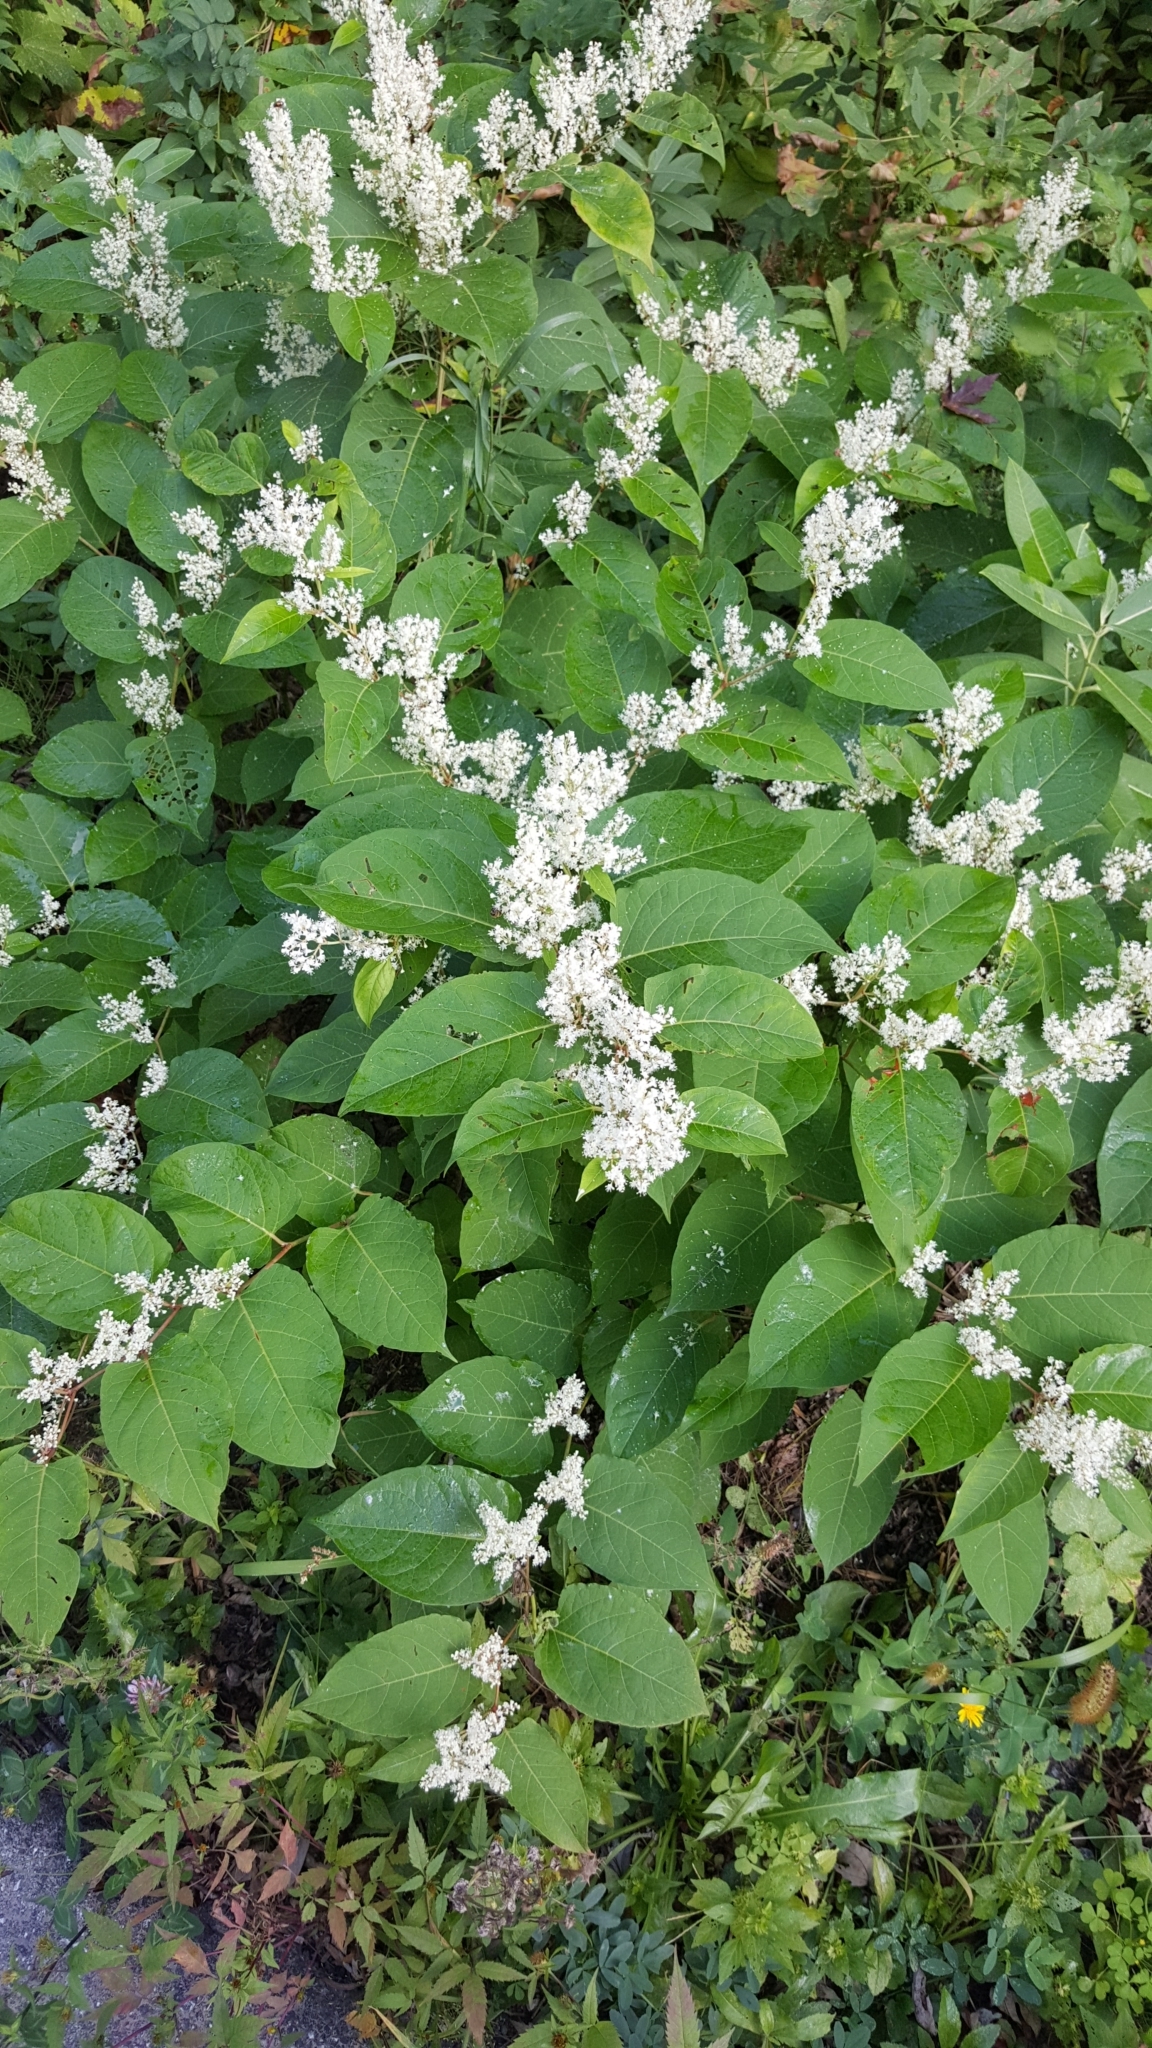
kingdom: Plantae
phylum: Tracheophyta
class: Magnoliopsida
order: Caryophyllales
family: Polygonaceae
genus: Reynoutria
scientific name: Reynoutria japonica
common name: Japanese knotweed
